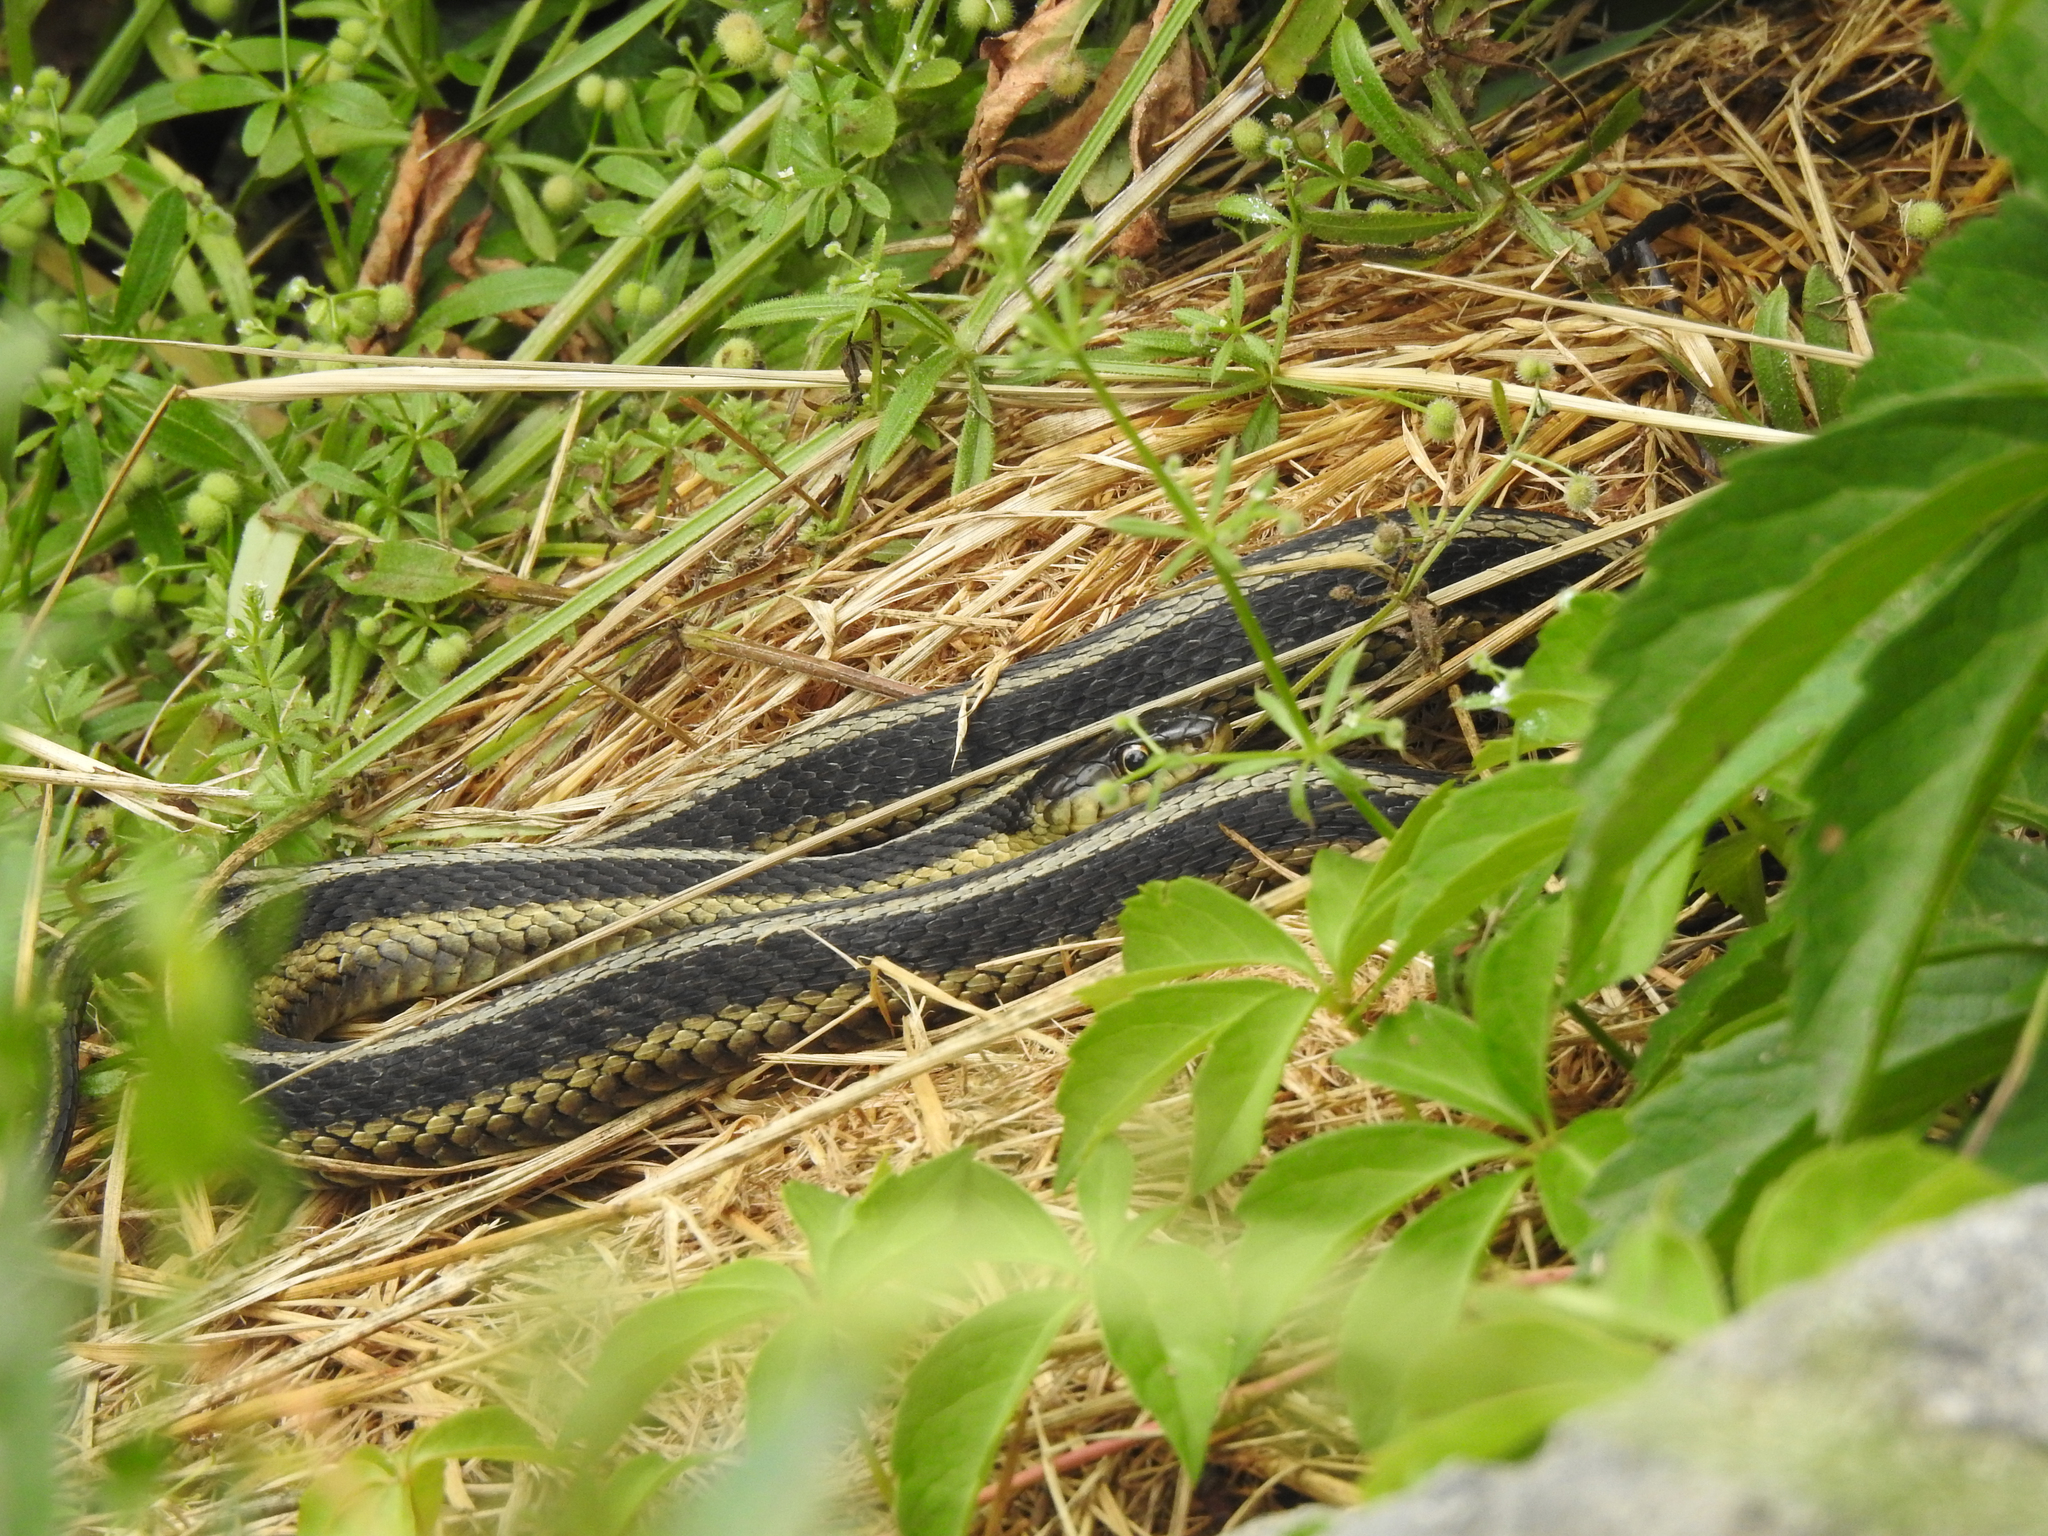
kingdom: Animalia
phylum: Chordata
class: Squamata
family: Colubridae
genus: Thamnophis
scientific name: Thamnophis sirtalis
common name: Common garter snake
